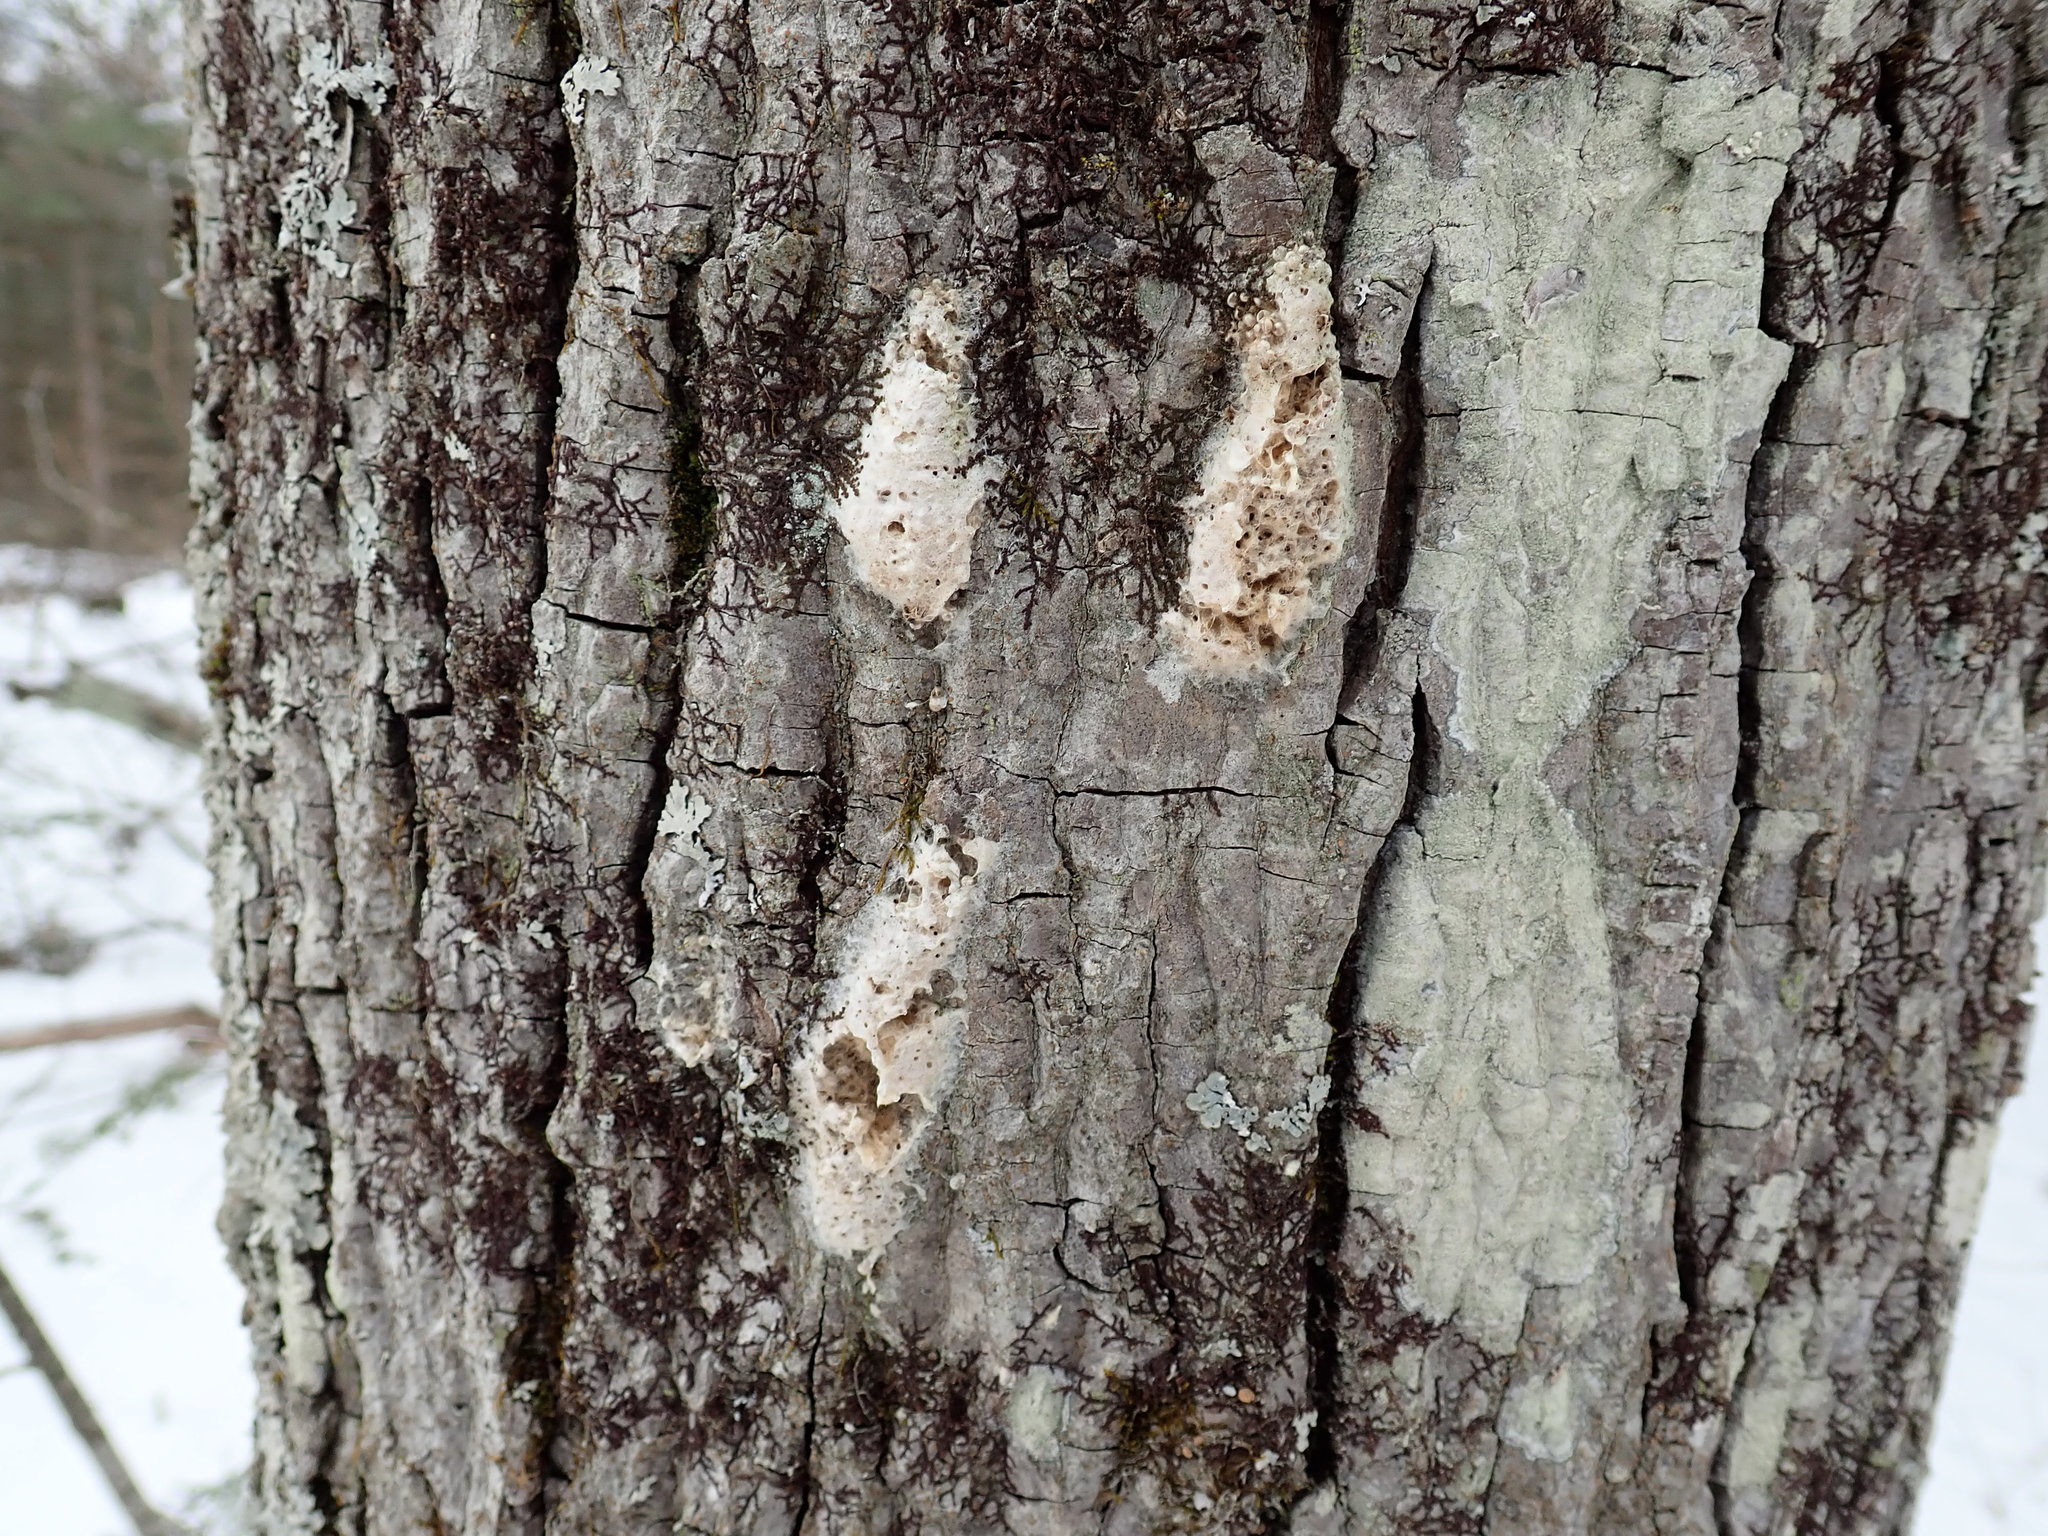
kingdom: Animalia
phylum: Arthropoda
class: Insecta
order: Lepidoptera
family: Erebidae
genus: Lymantria
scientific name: Lymantria dispar
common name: Gypsy moth
